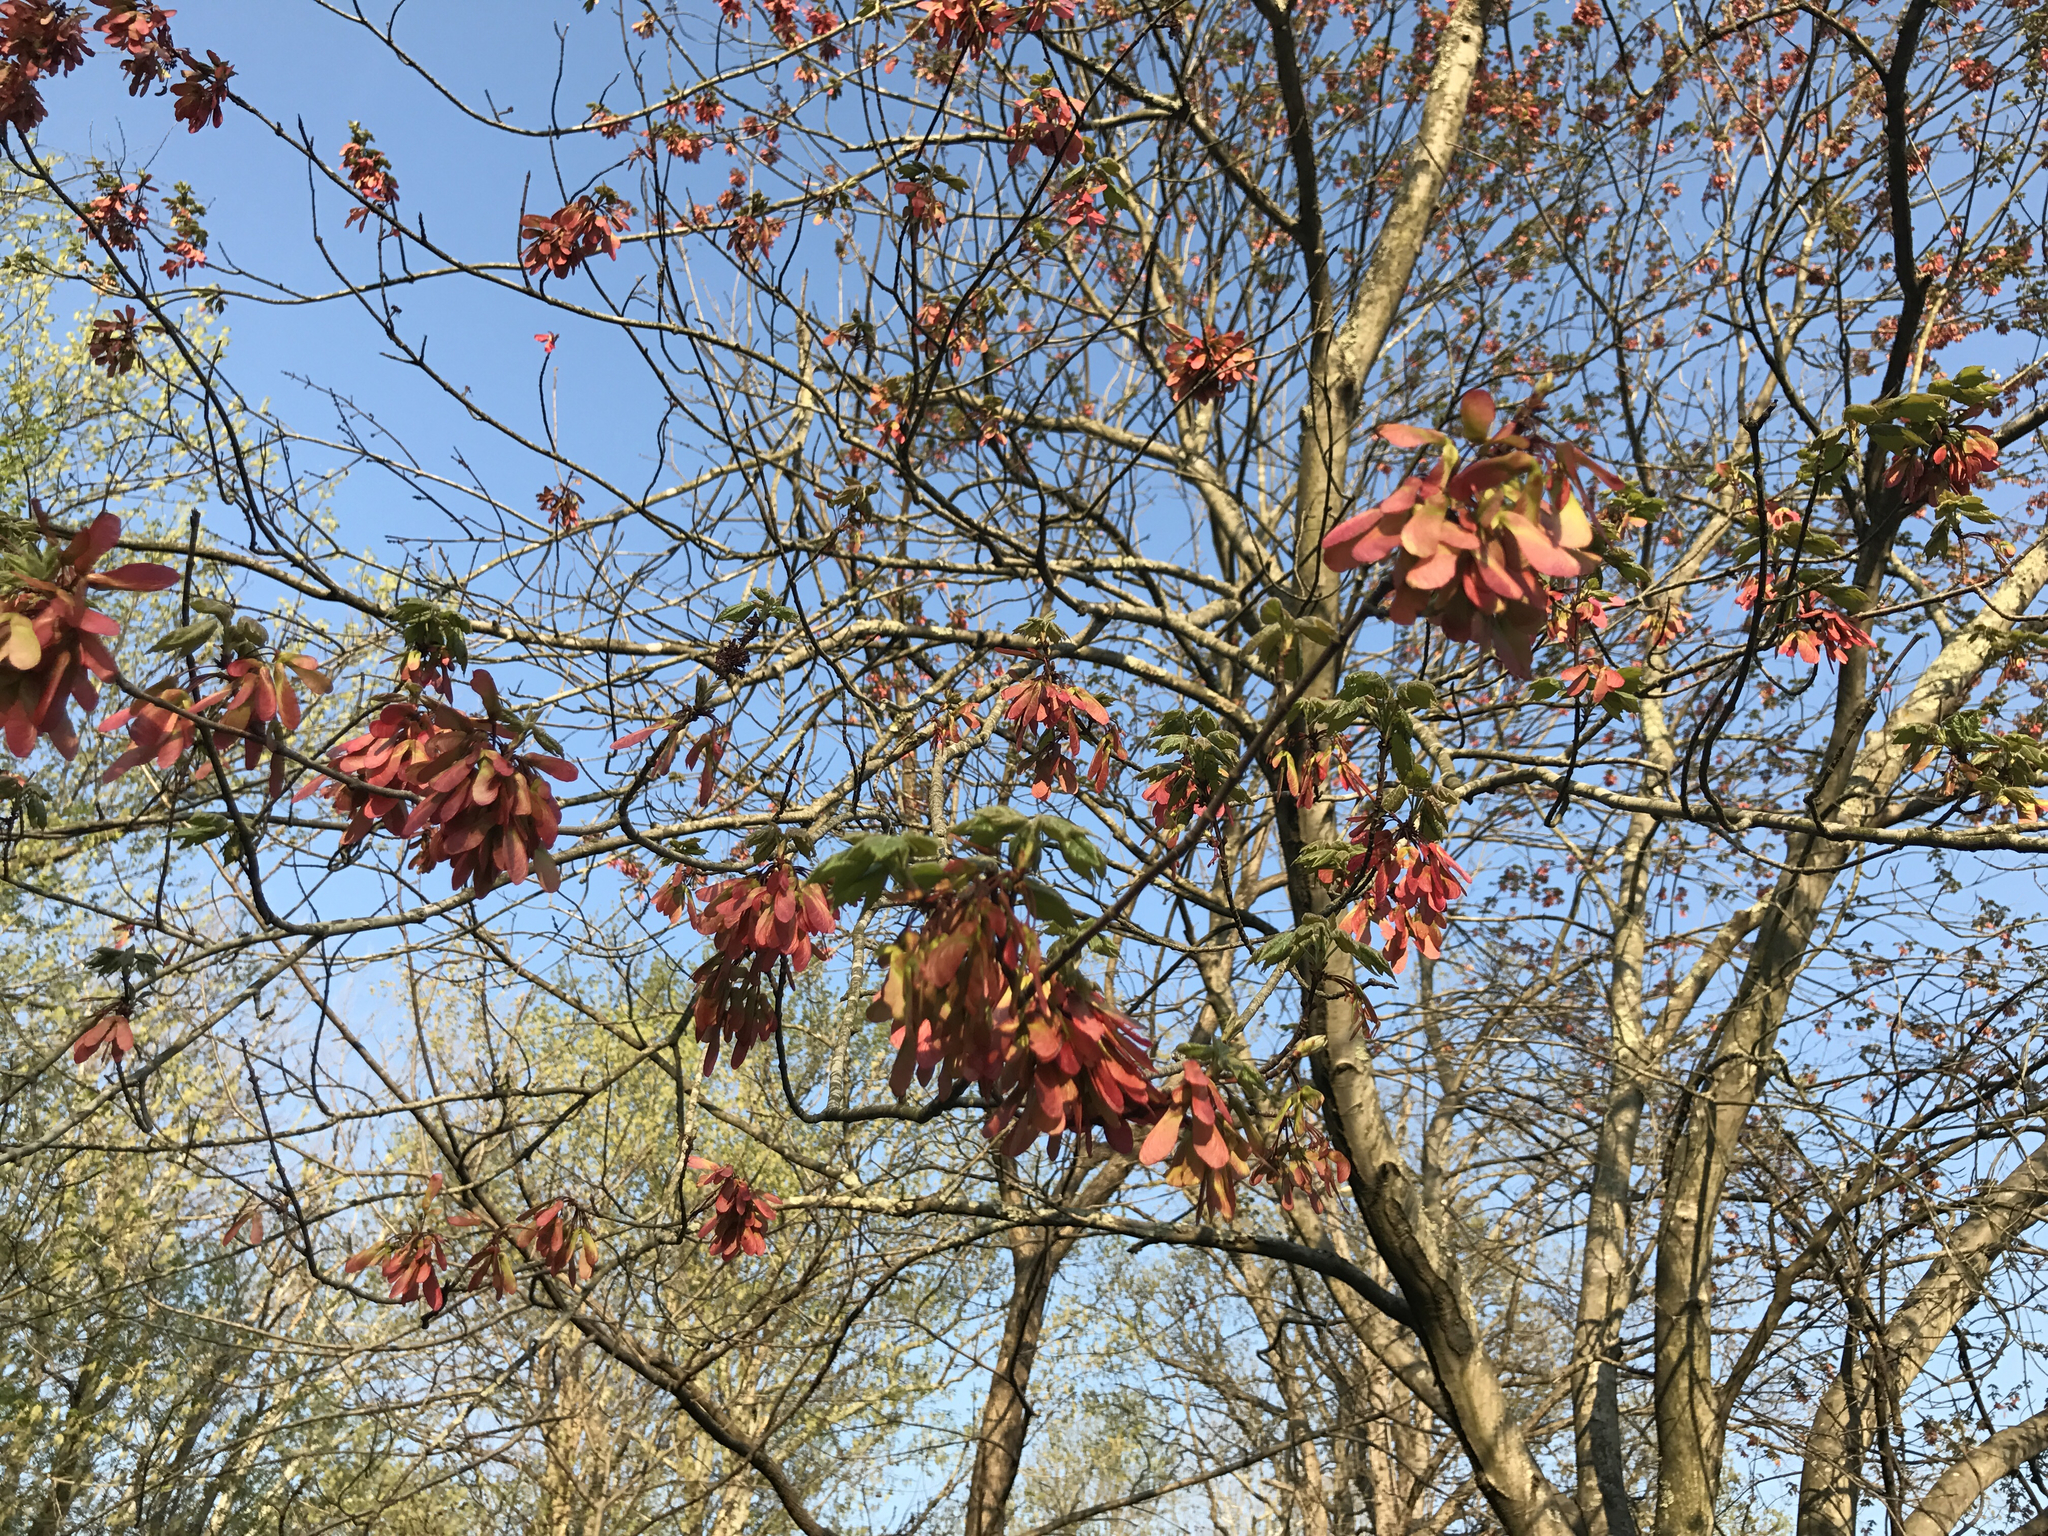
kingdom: Plantae
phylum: Tracheophyta
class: Magnoliopsida
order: Sapindales
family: Sapindaceae
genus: Acer
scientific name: Acer rubrum
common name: Red maple
